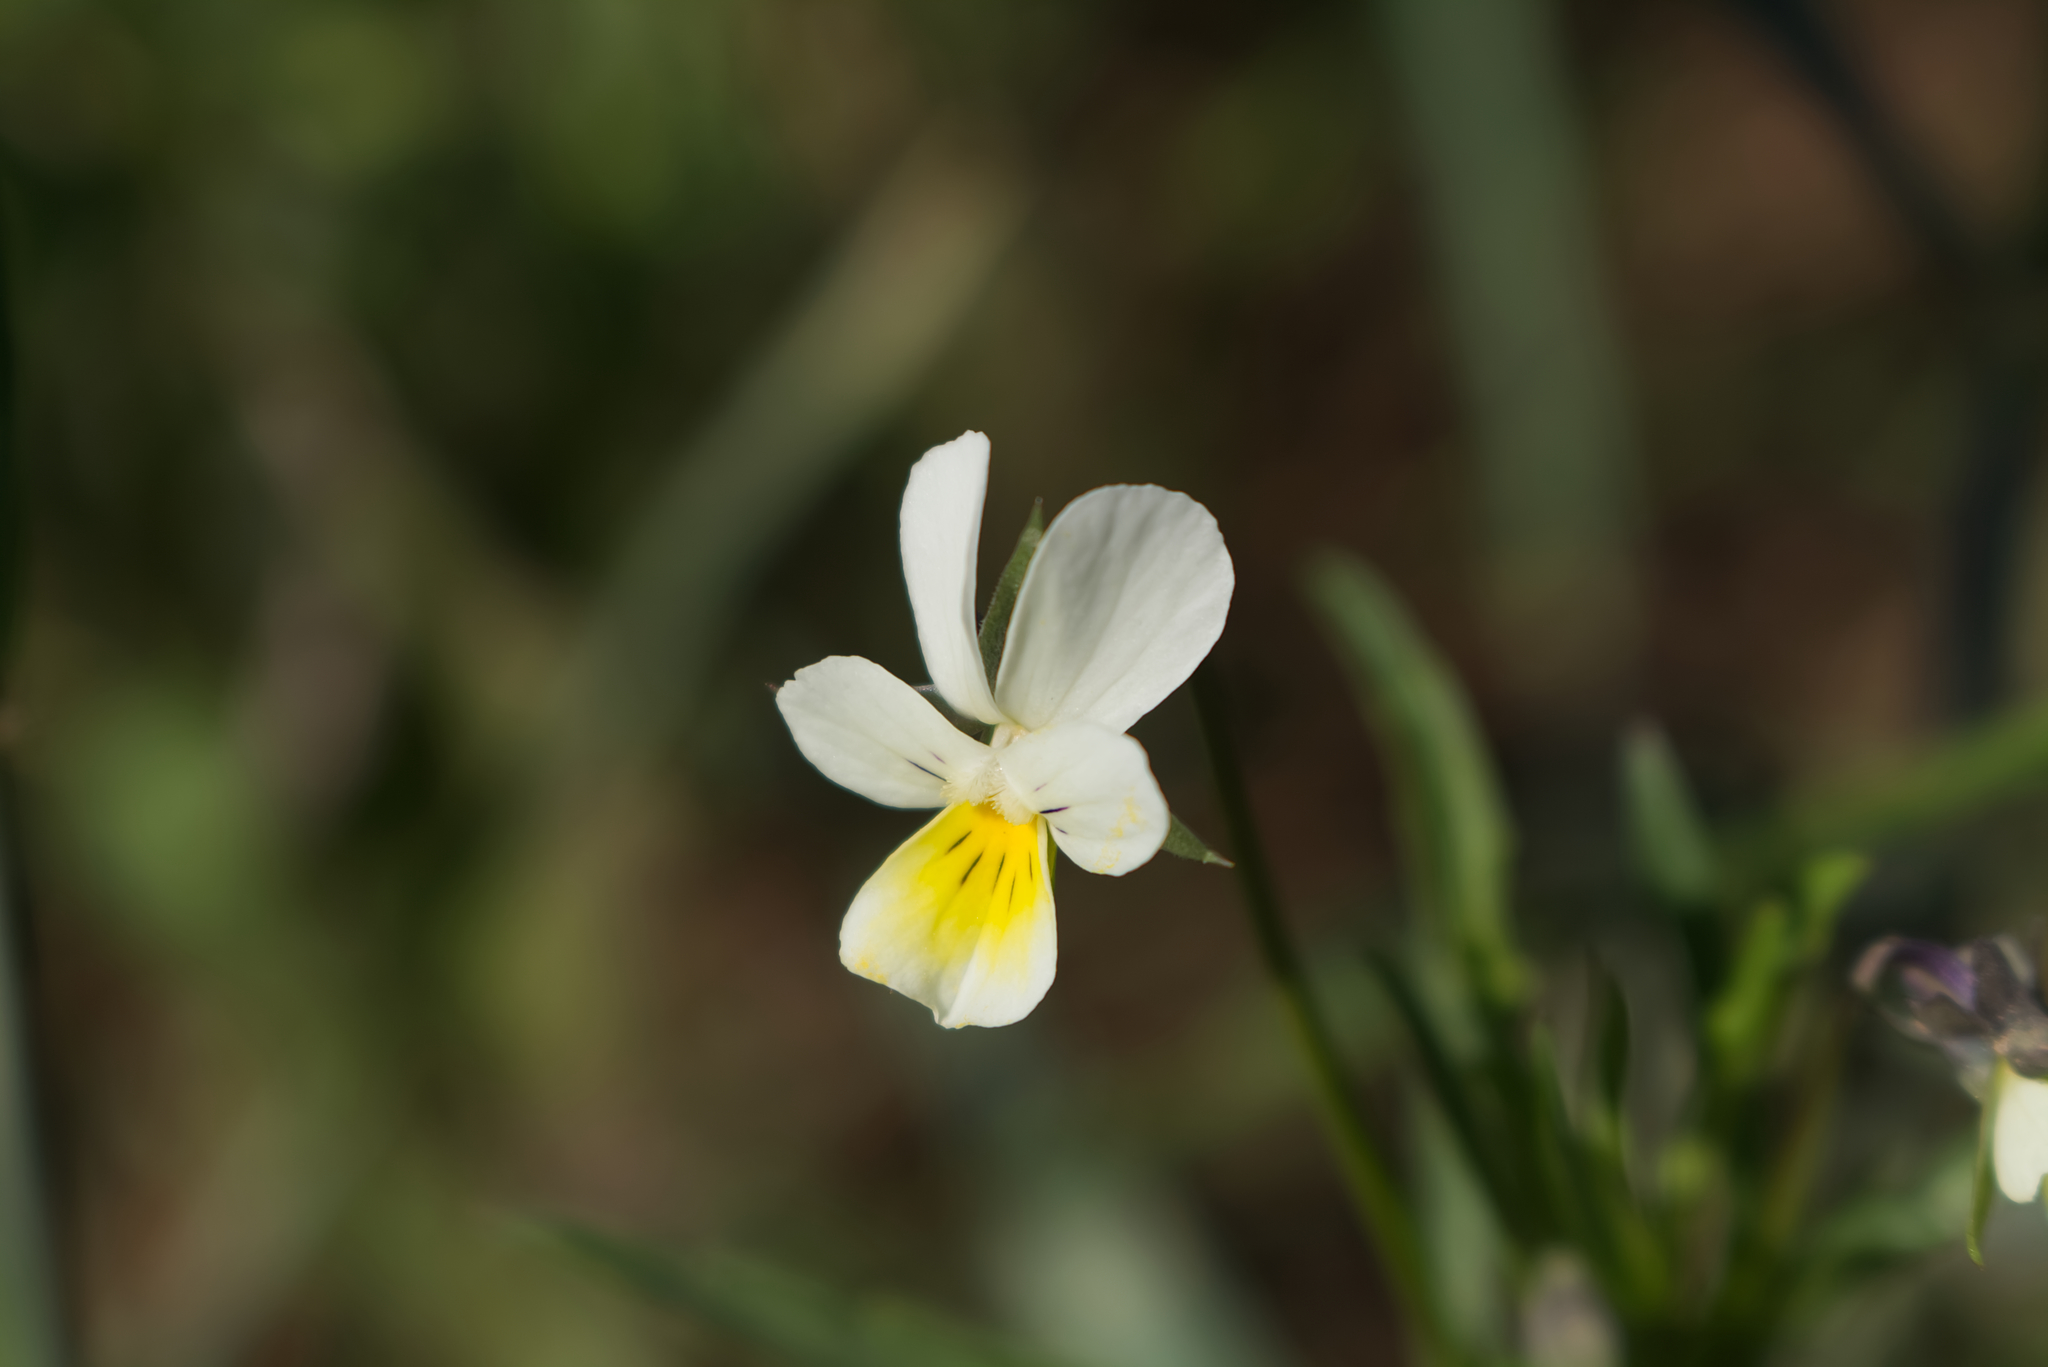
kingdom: Plantae
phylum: Tracheophyta
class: Magnoliopsida
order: Malpighiales
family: Violaceae
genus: Viola
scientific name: Viola arvensis
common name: Field pansy
